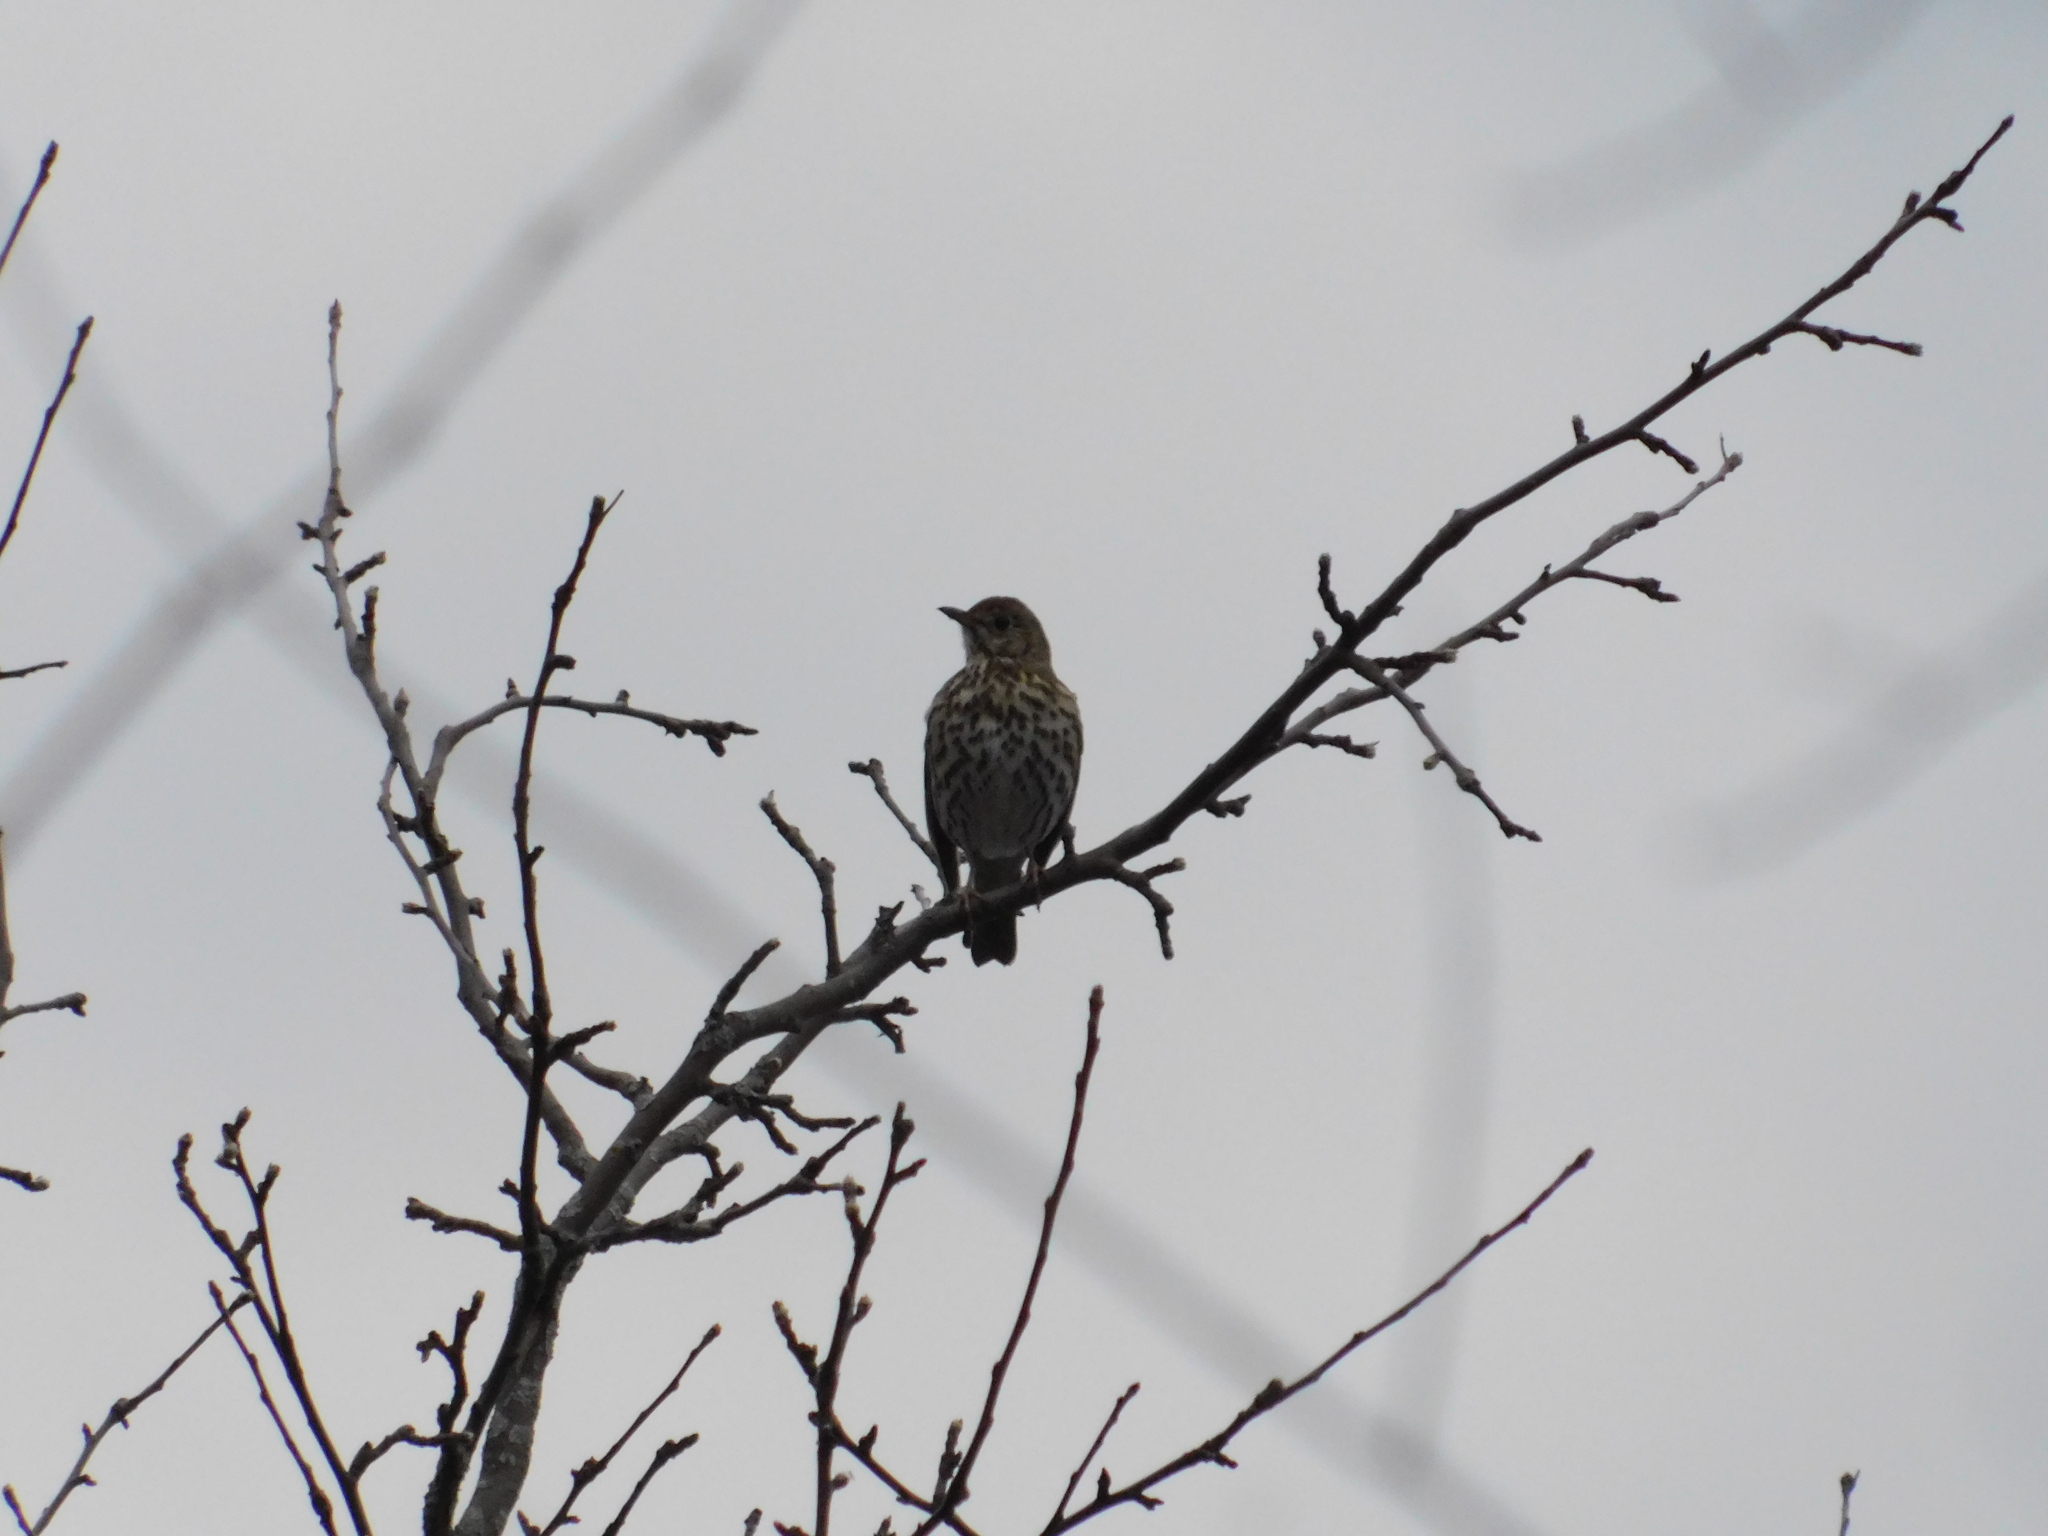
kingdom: Animalia
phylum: Chordata
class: Aves
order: Passeriformes
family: Turdidae
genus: Turdus
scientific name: Turdus philomelos
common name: Song thrush
